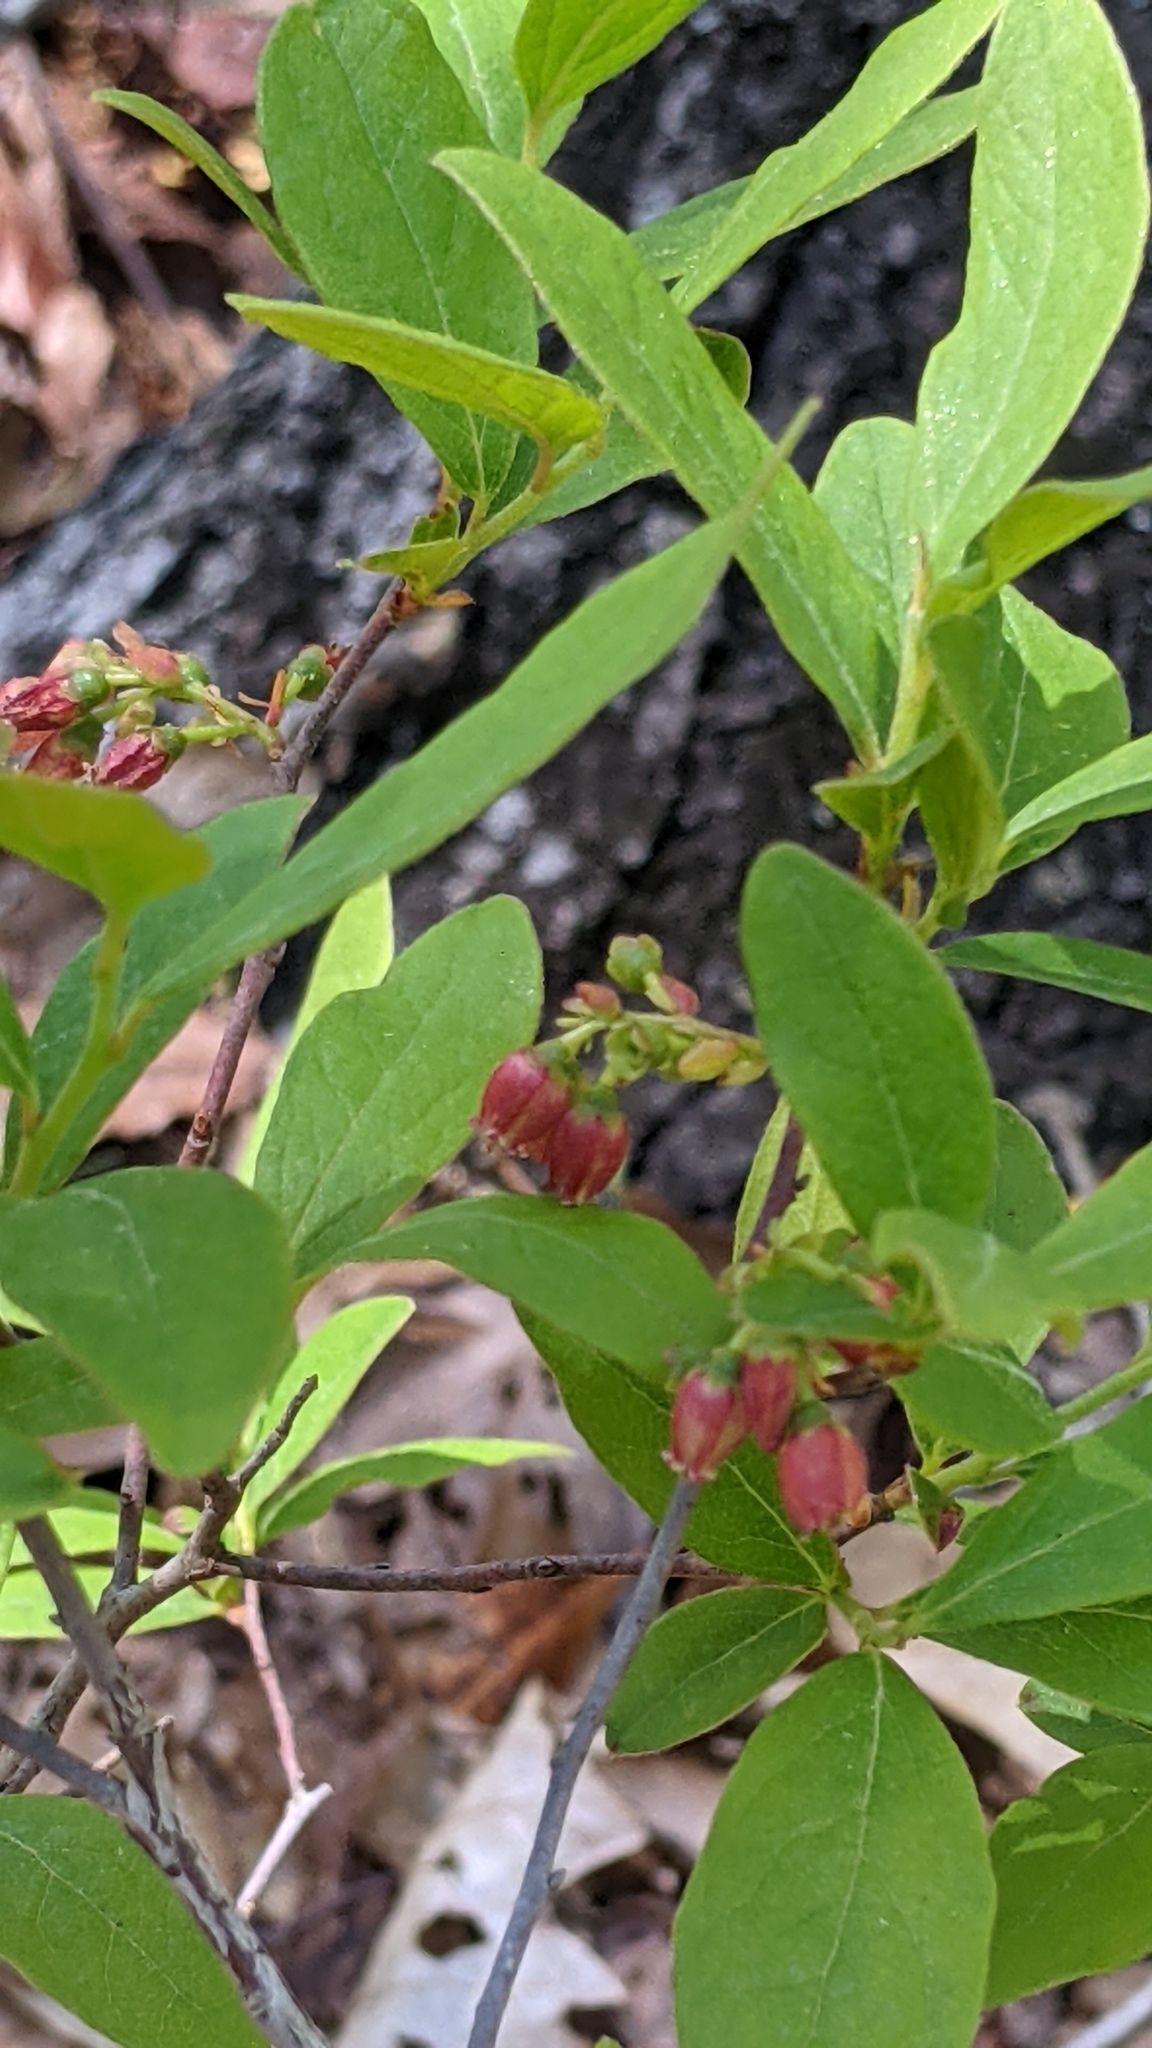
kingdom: Plantae
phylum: Tracheophyta
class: Magnoliopsida
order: Ericales
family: Ericaceae
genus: Gaylussacia
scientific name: Gaylussacia baccata
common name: Black huckleberry
